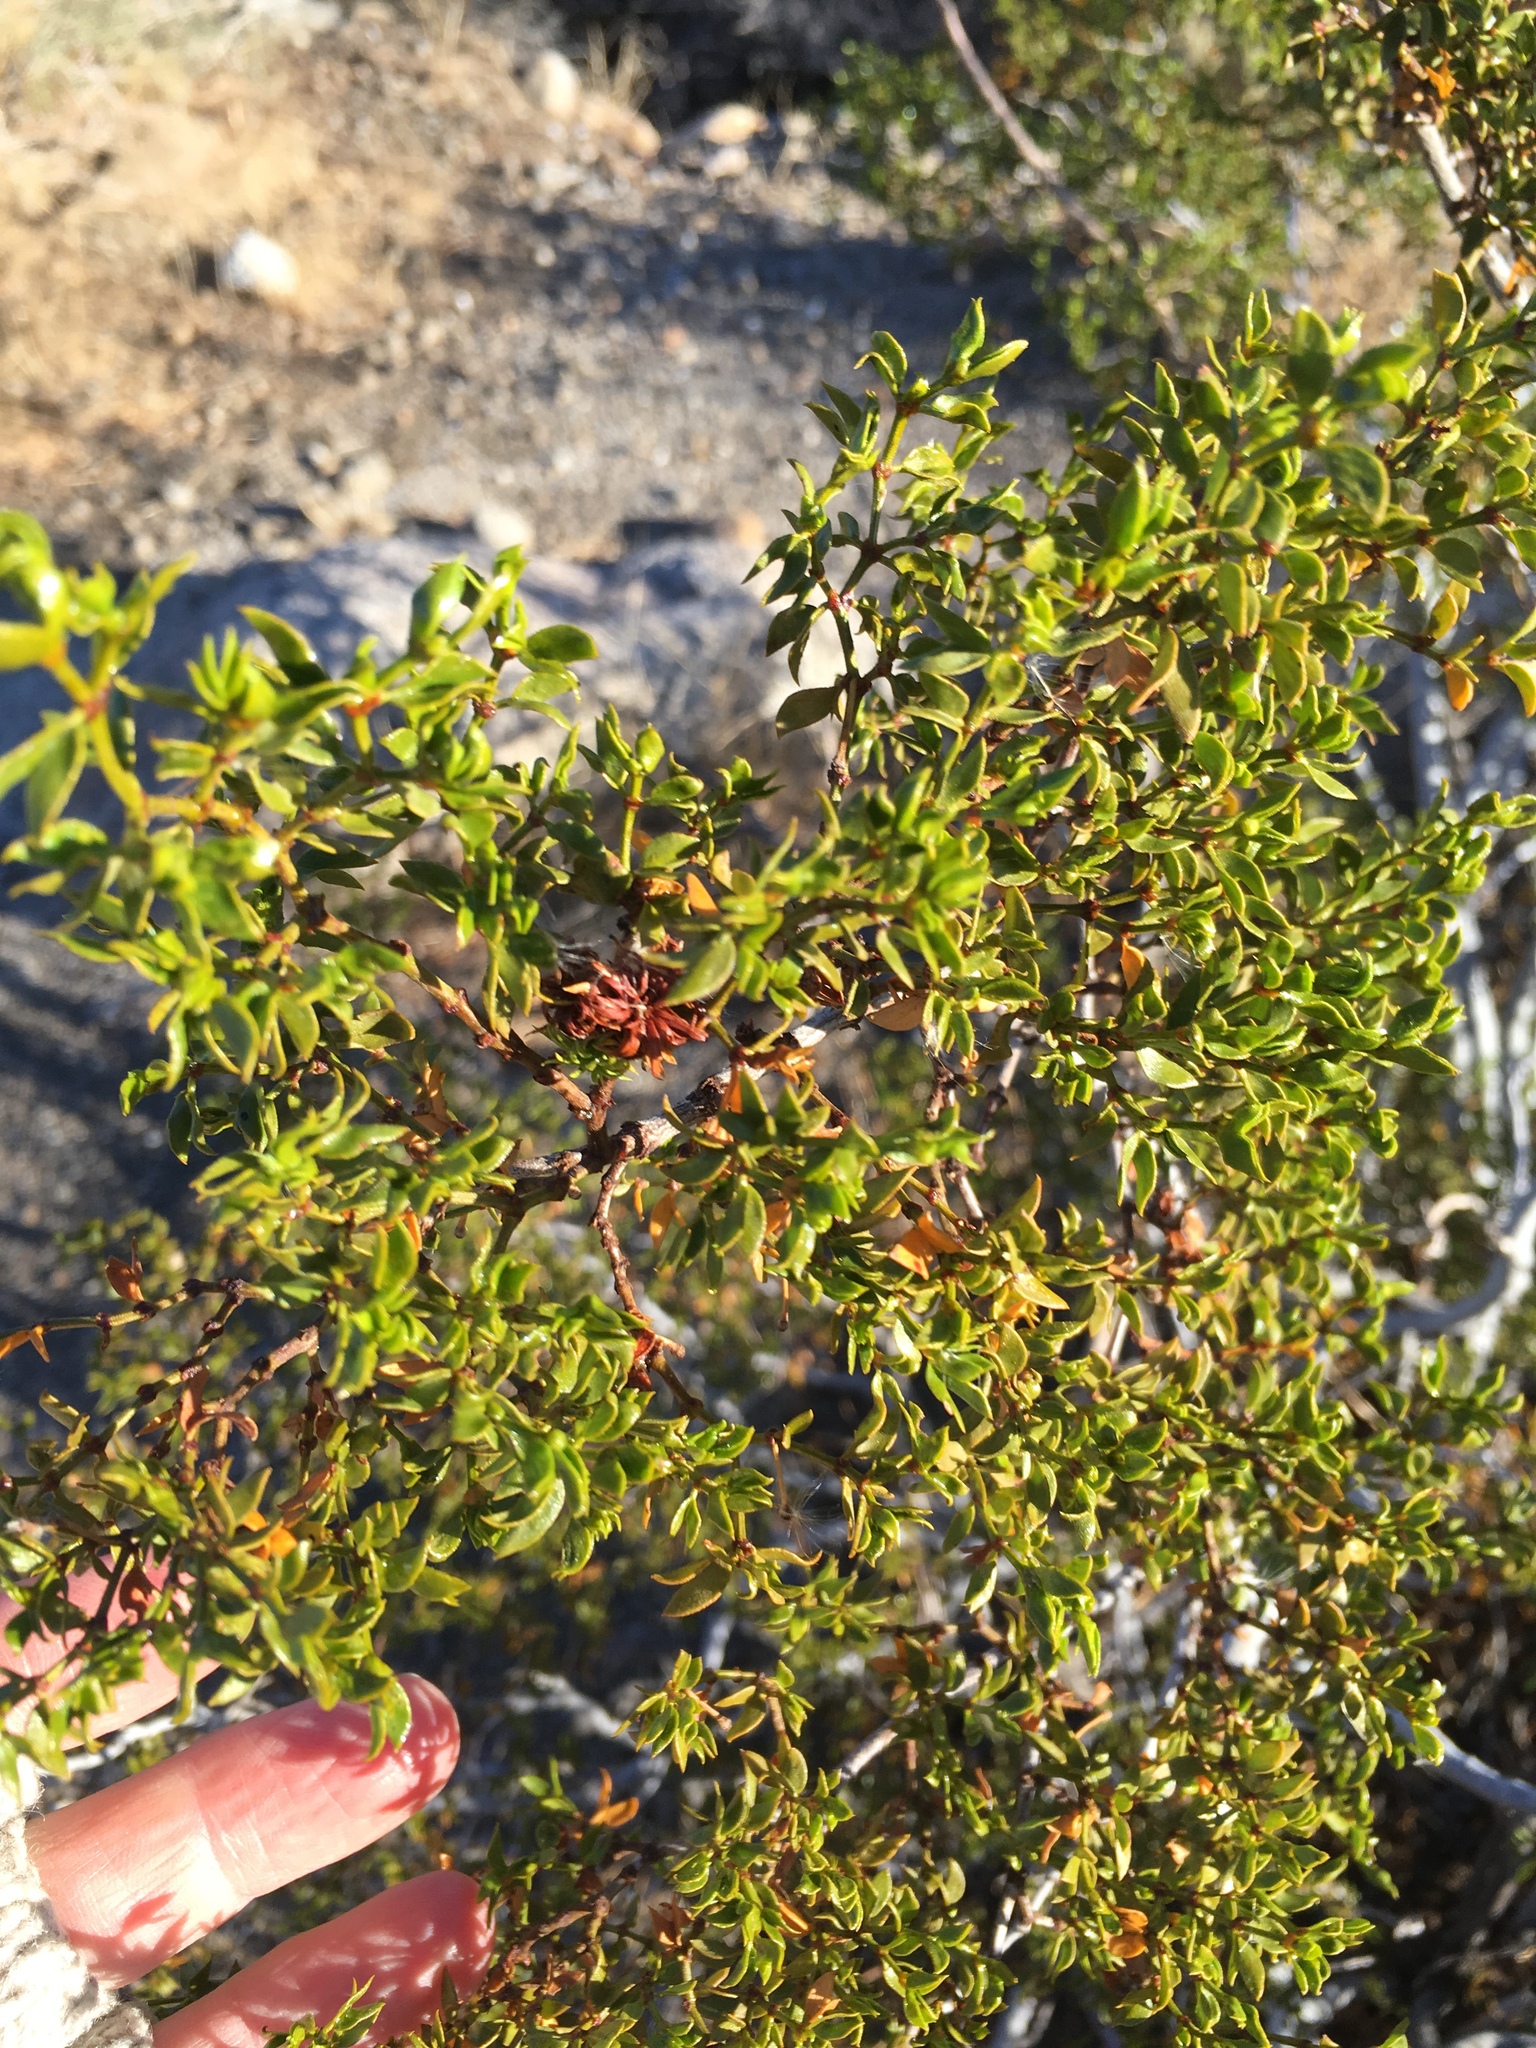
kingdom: Plantae
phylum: Tracheophyta
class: Magnoliopsida
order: Zygophyllales
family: Zygophyllaceae
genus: Larrea
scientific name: Larrea tridentata
